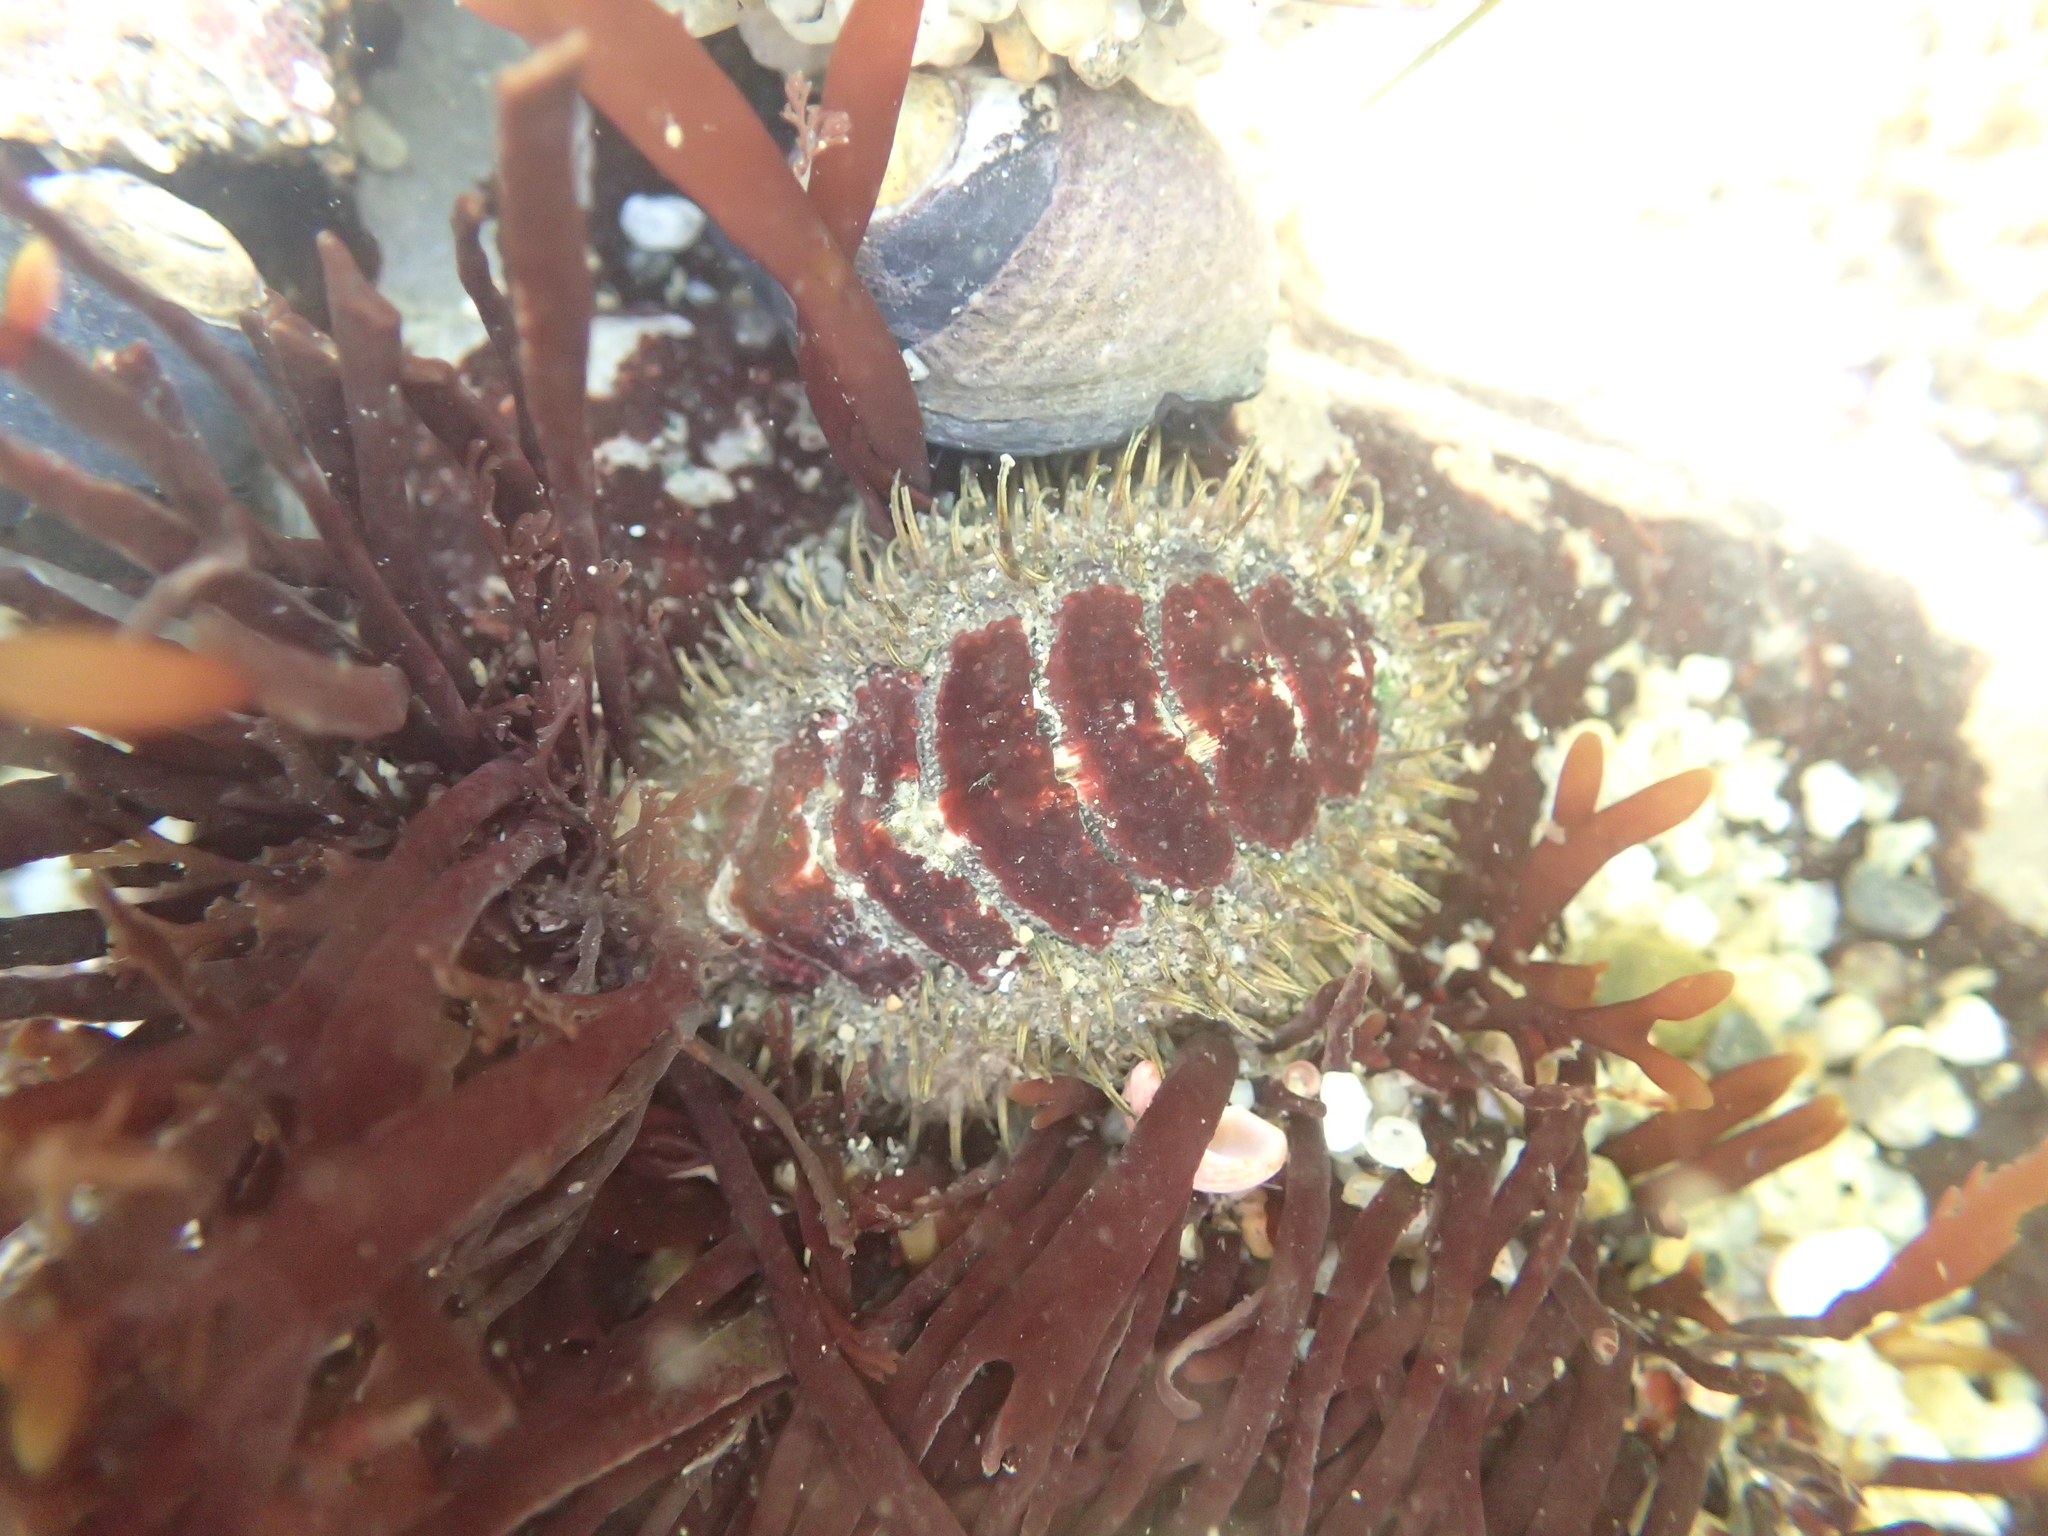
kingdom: Animalia
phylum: Mollusca
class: Polyplacophora
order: Chitonida
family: Mopaliidae
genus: Mopalia
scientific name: Mopalia muscosa
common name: Mossy chiton
